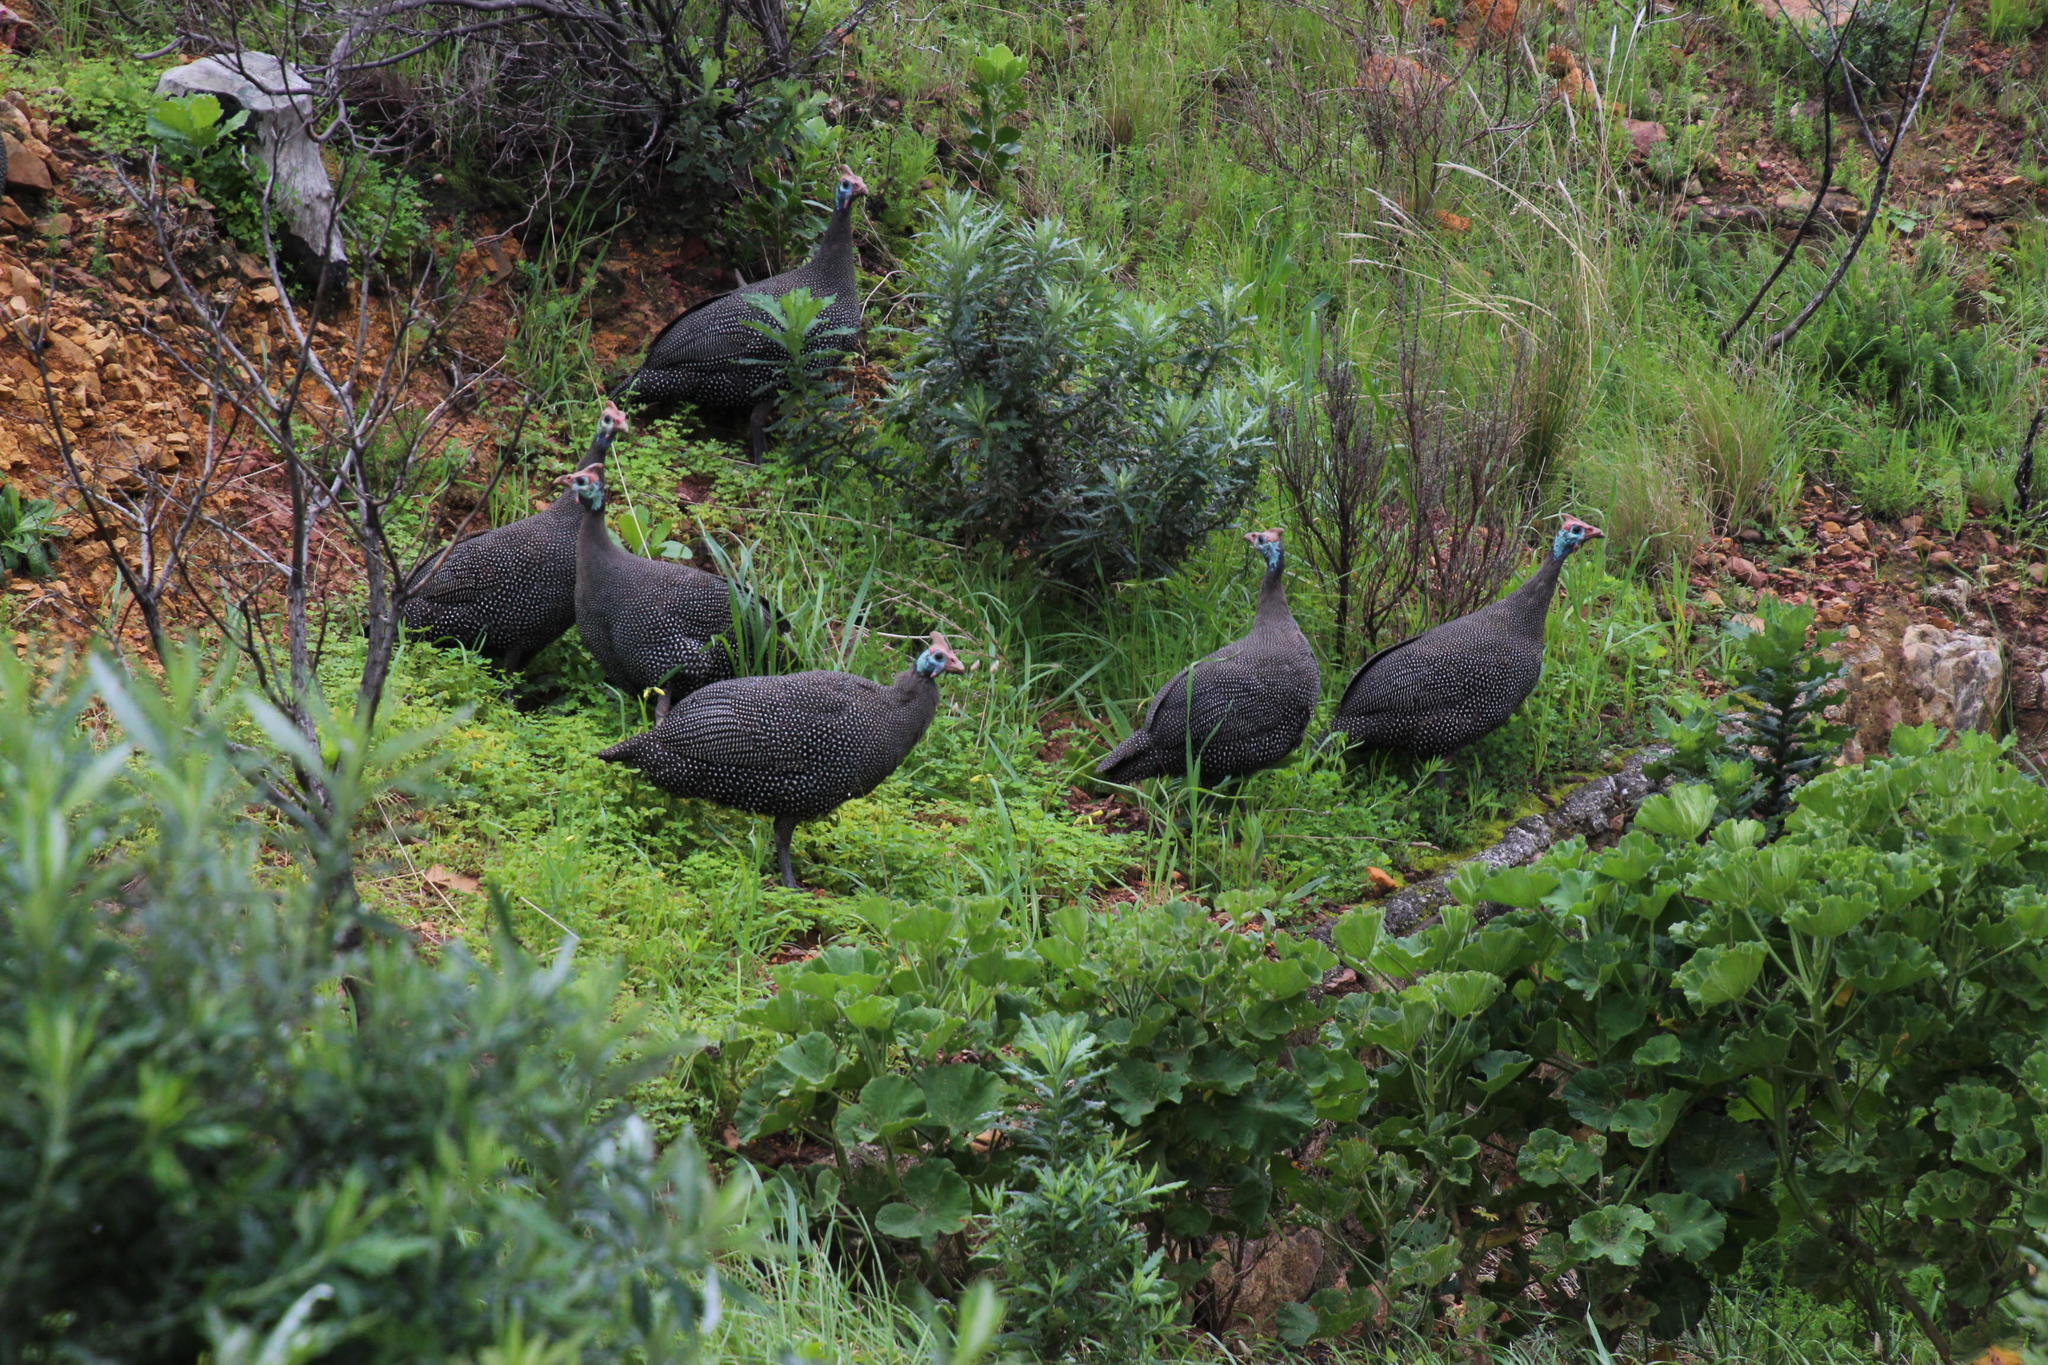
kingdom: Animalia
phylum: Chordata
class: Aves
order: Galliformes
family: Numididae
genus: Numida
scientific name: Numida meleagris
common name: Helmeted guineafowl
